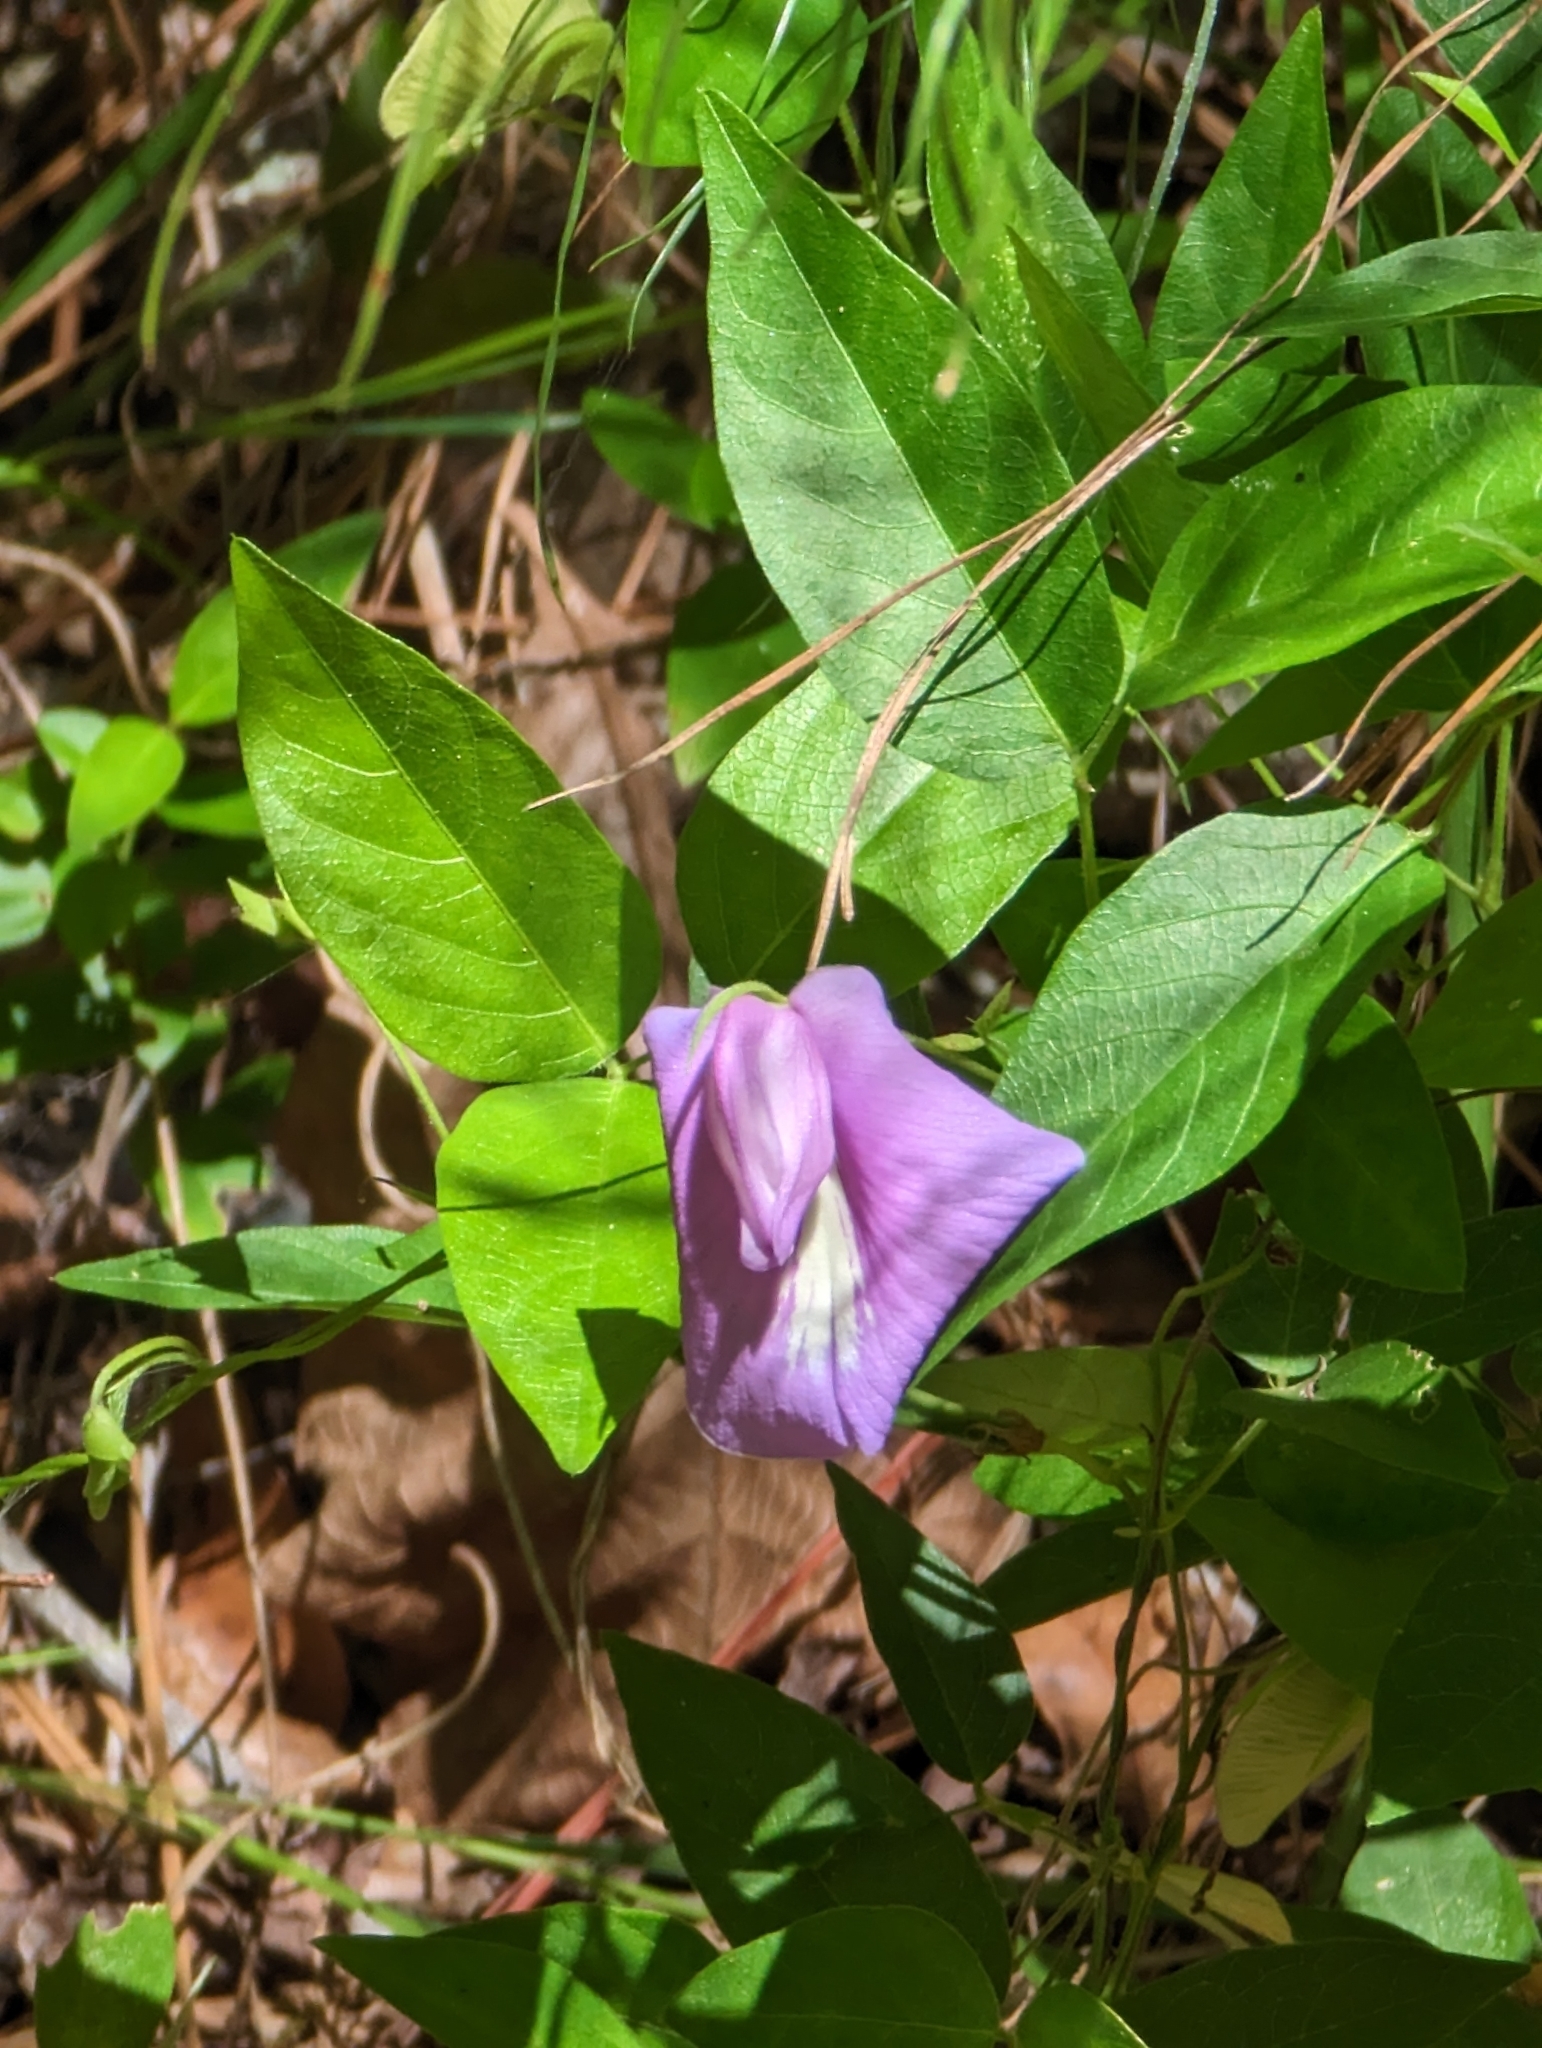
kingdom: Plantae
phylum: Tracheophyta
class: Magnoliopsida
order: Fabales
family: Fabaceae
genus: Centrosema
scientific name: Centrosema virginianum
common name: Butterfly-pea
